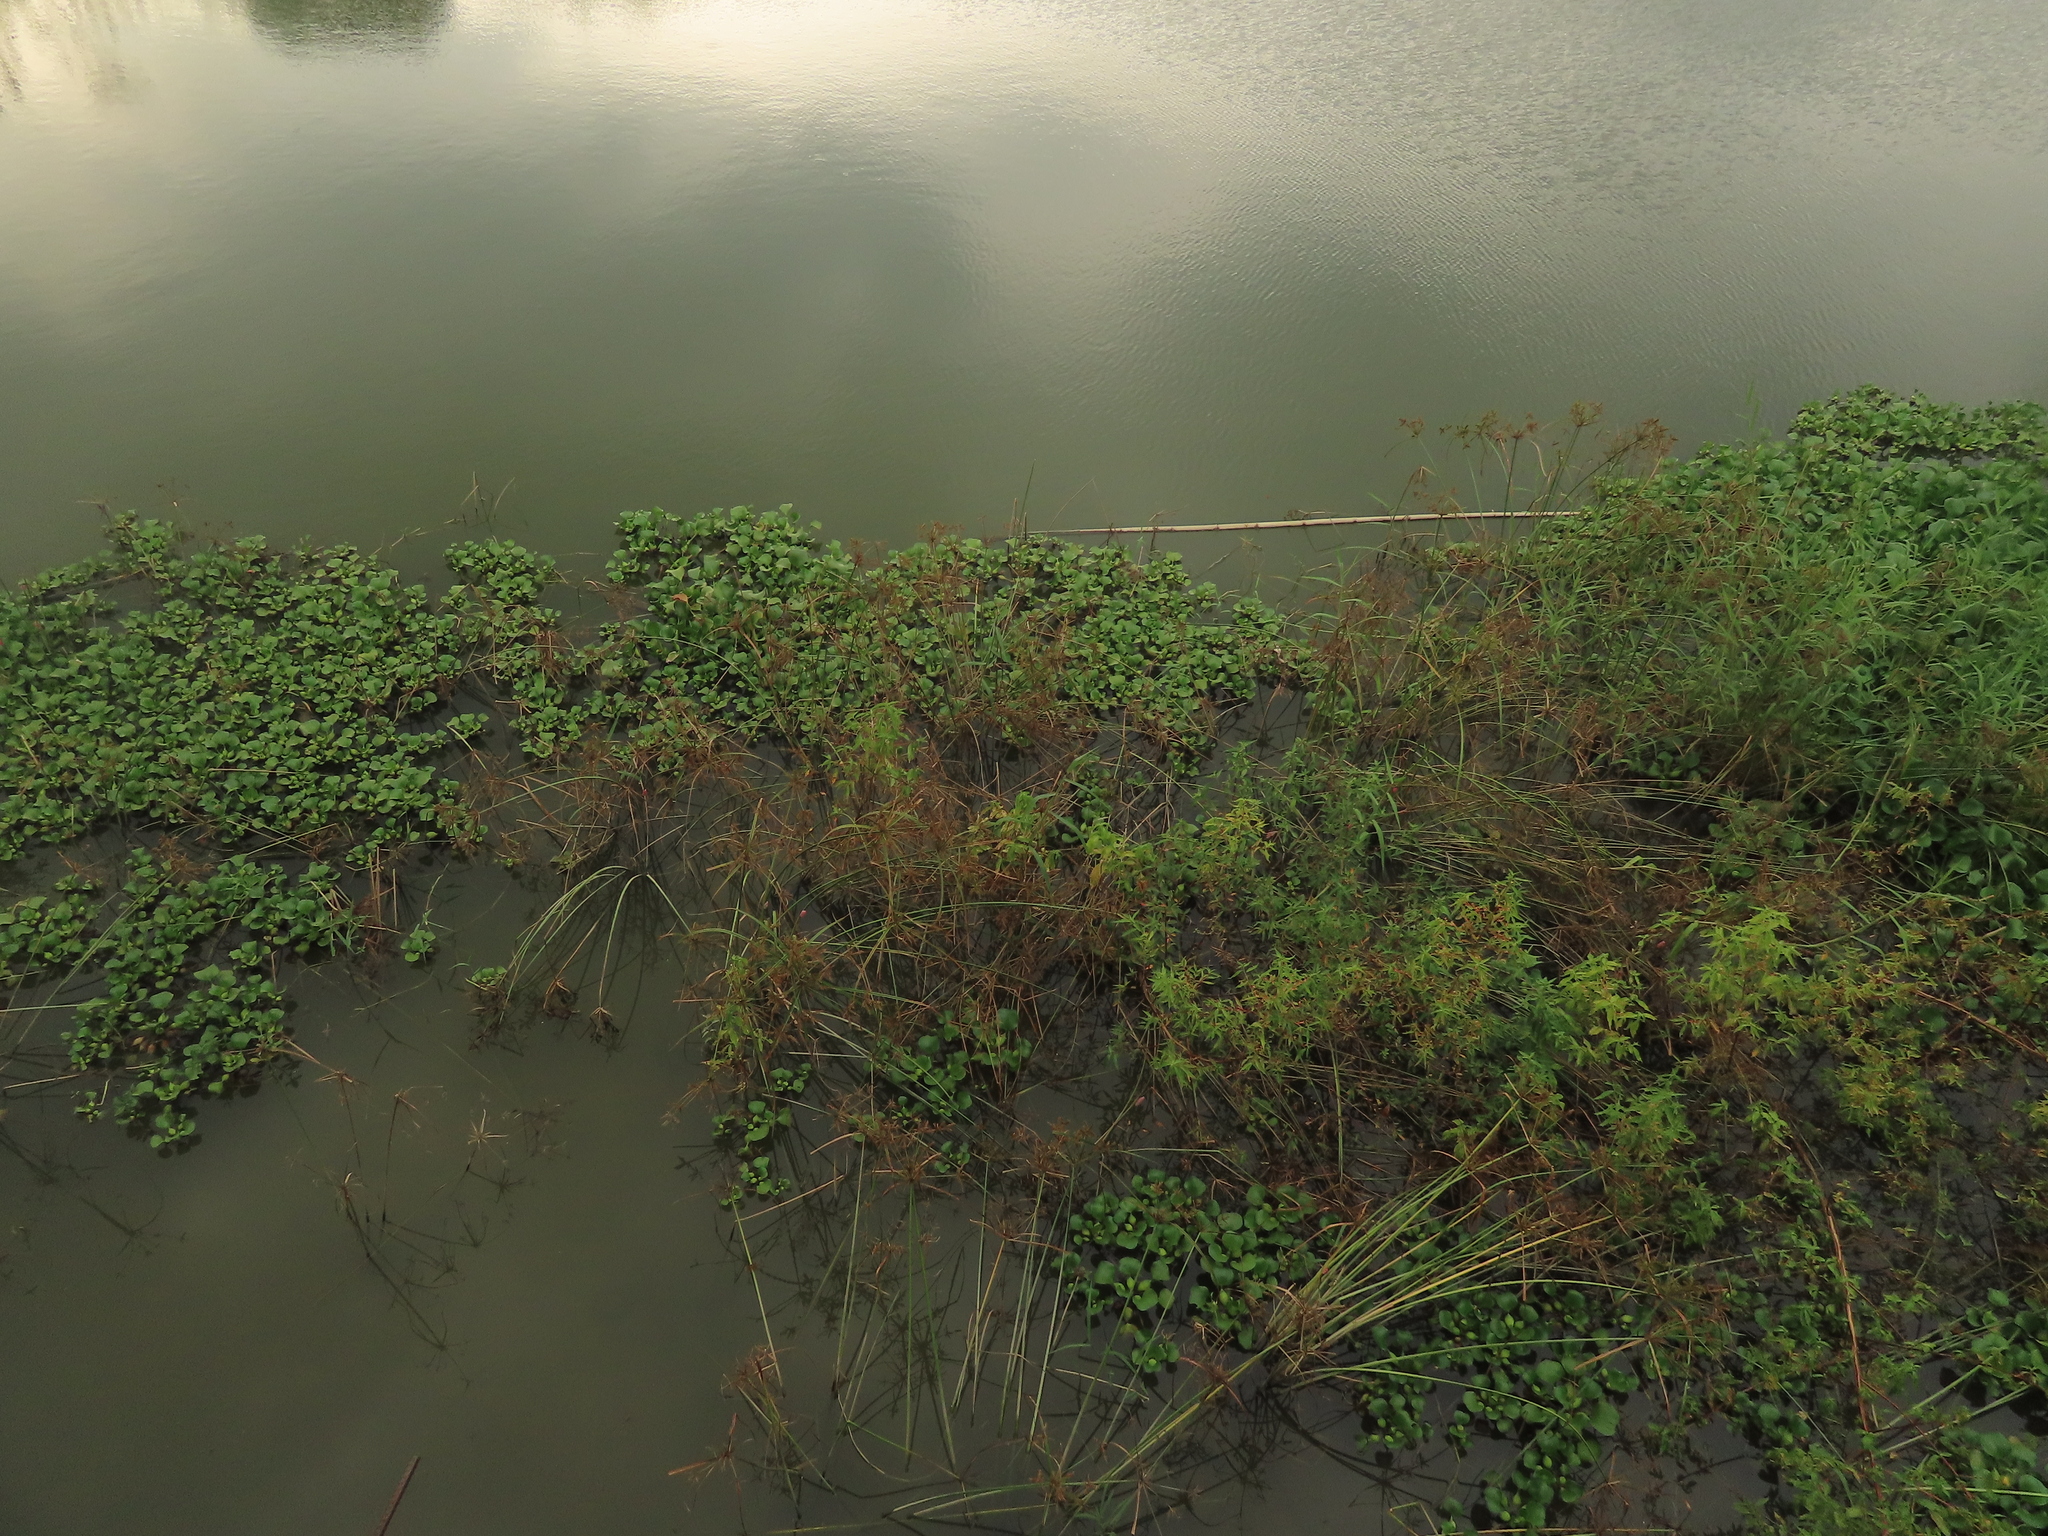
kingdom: Plantae
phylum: Tracheophyta
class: Liliopsida
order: Poales
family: Cyperaceae
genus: Cyperus
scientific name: Cyperus imbricatus
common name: Shingle flatsedge
